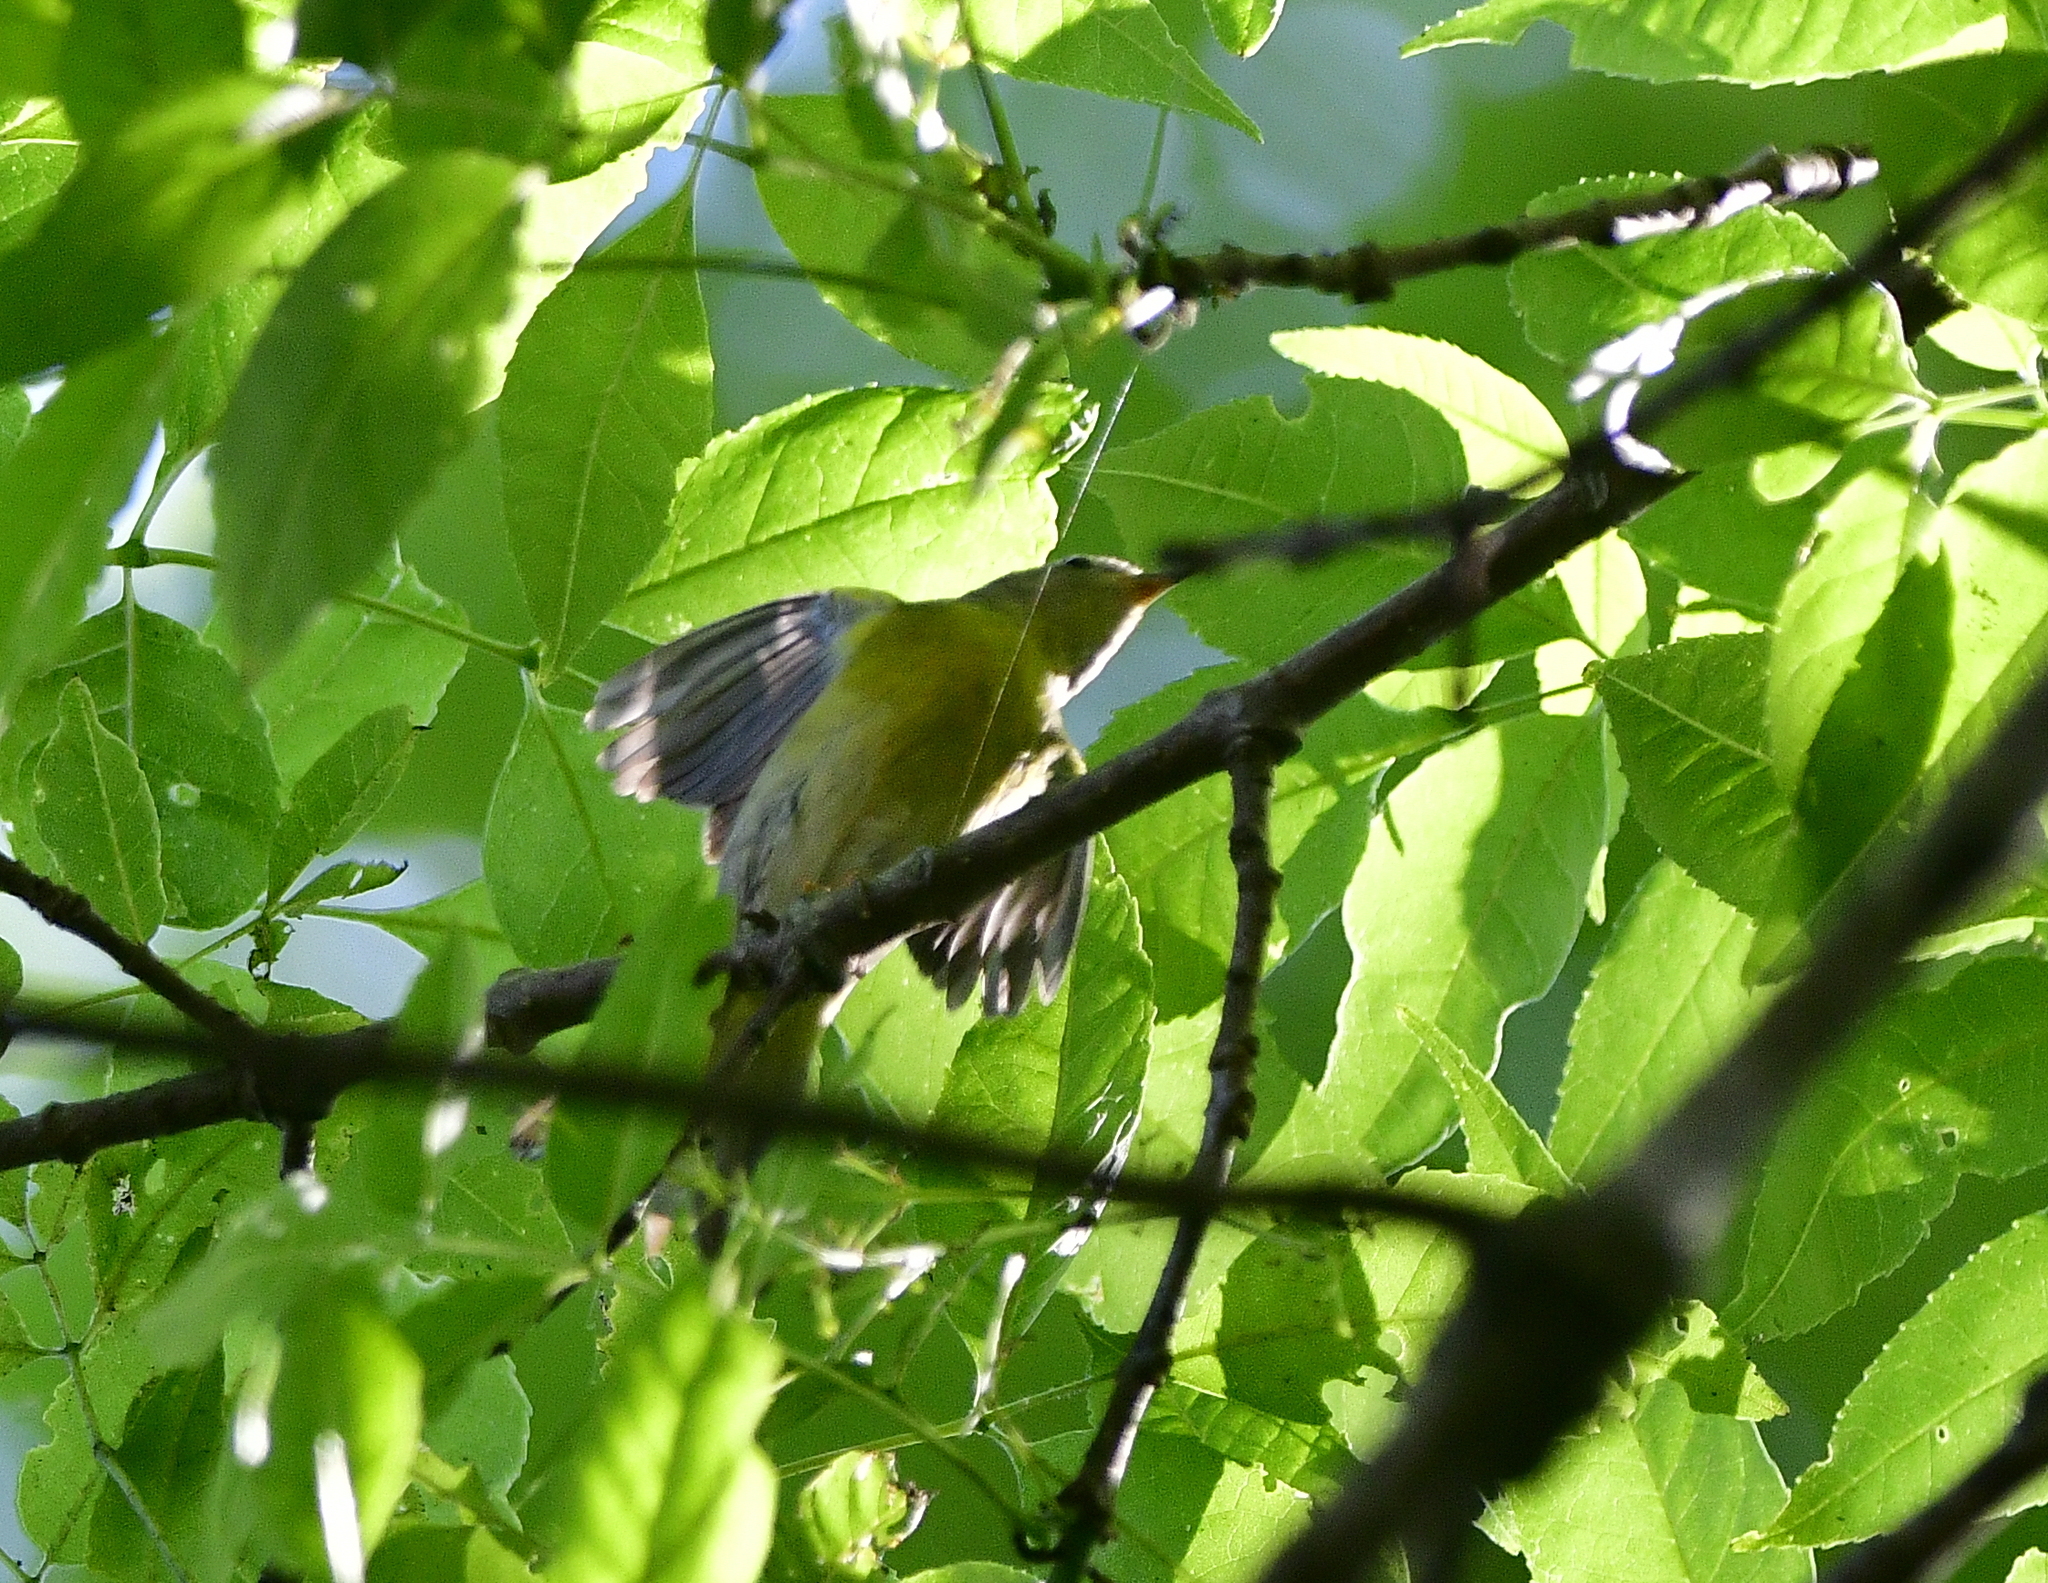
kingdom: Animalia
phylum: Chordata
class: Aves
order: Passeriformes
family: Parulidae
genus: Leiothlypis
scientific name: Leiothlypis ruficapilla
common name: Nashville warbler
